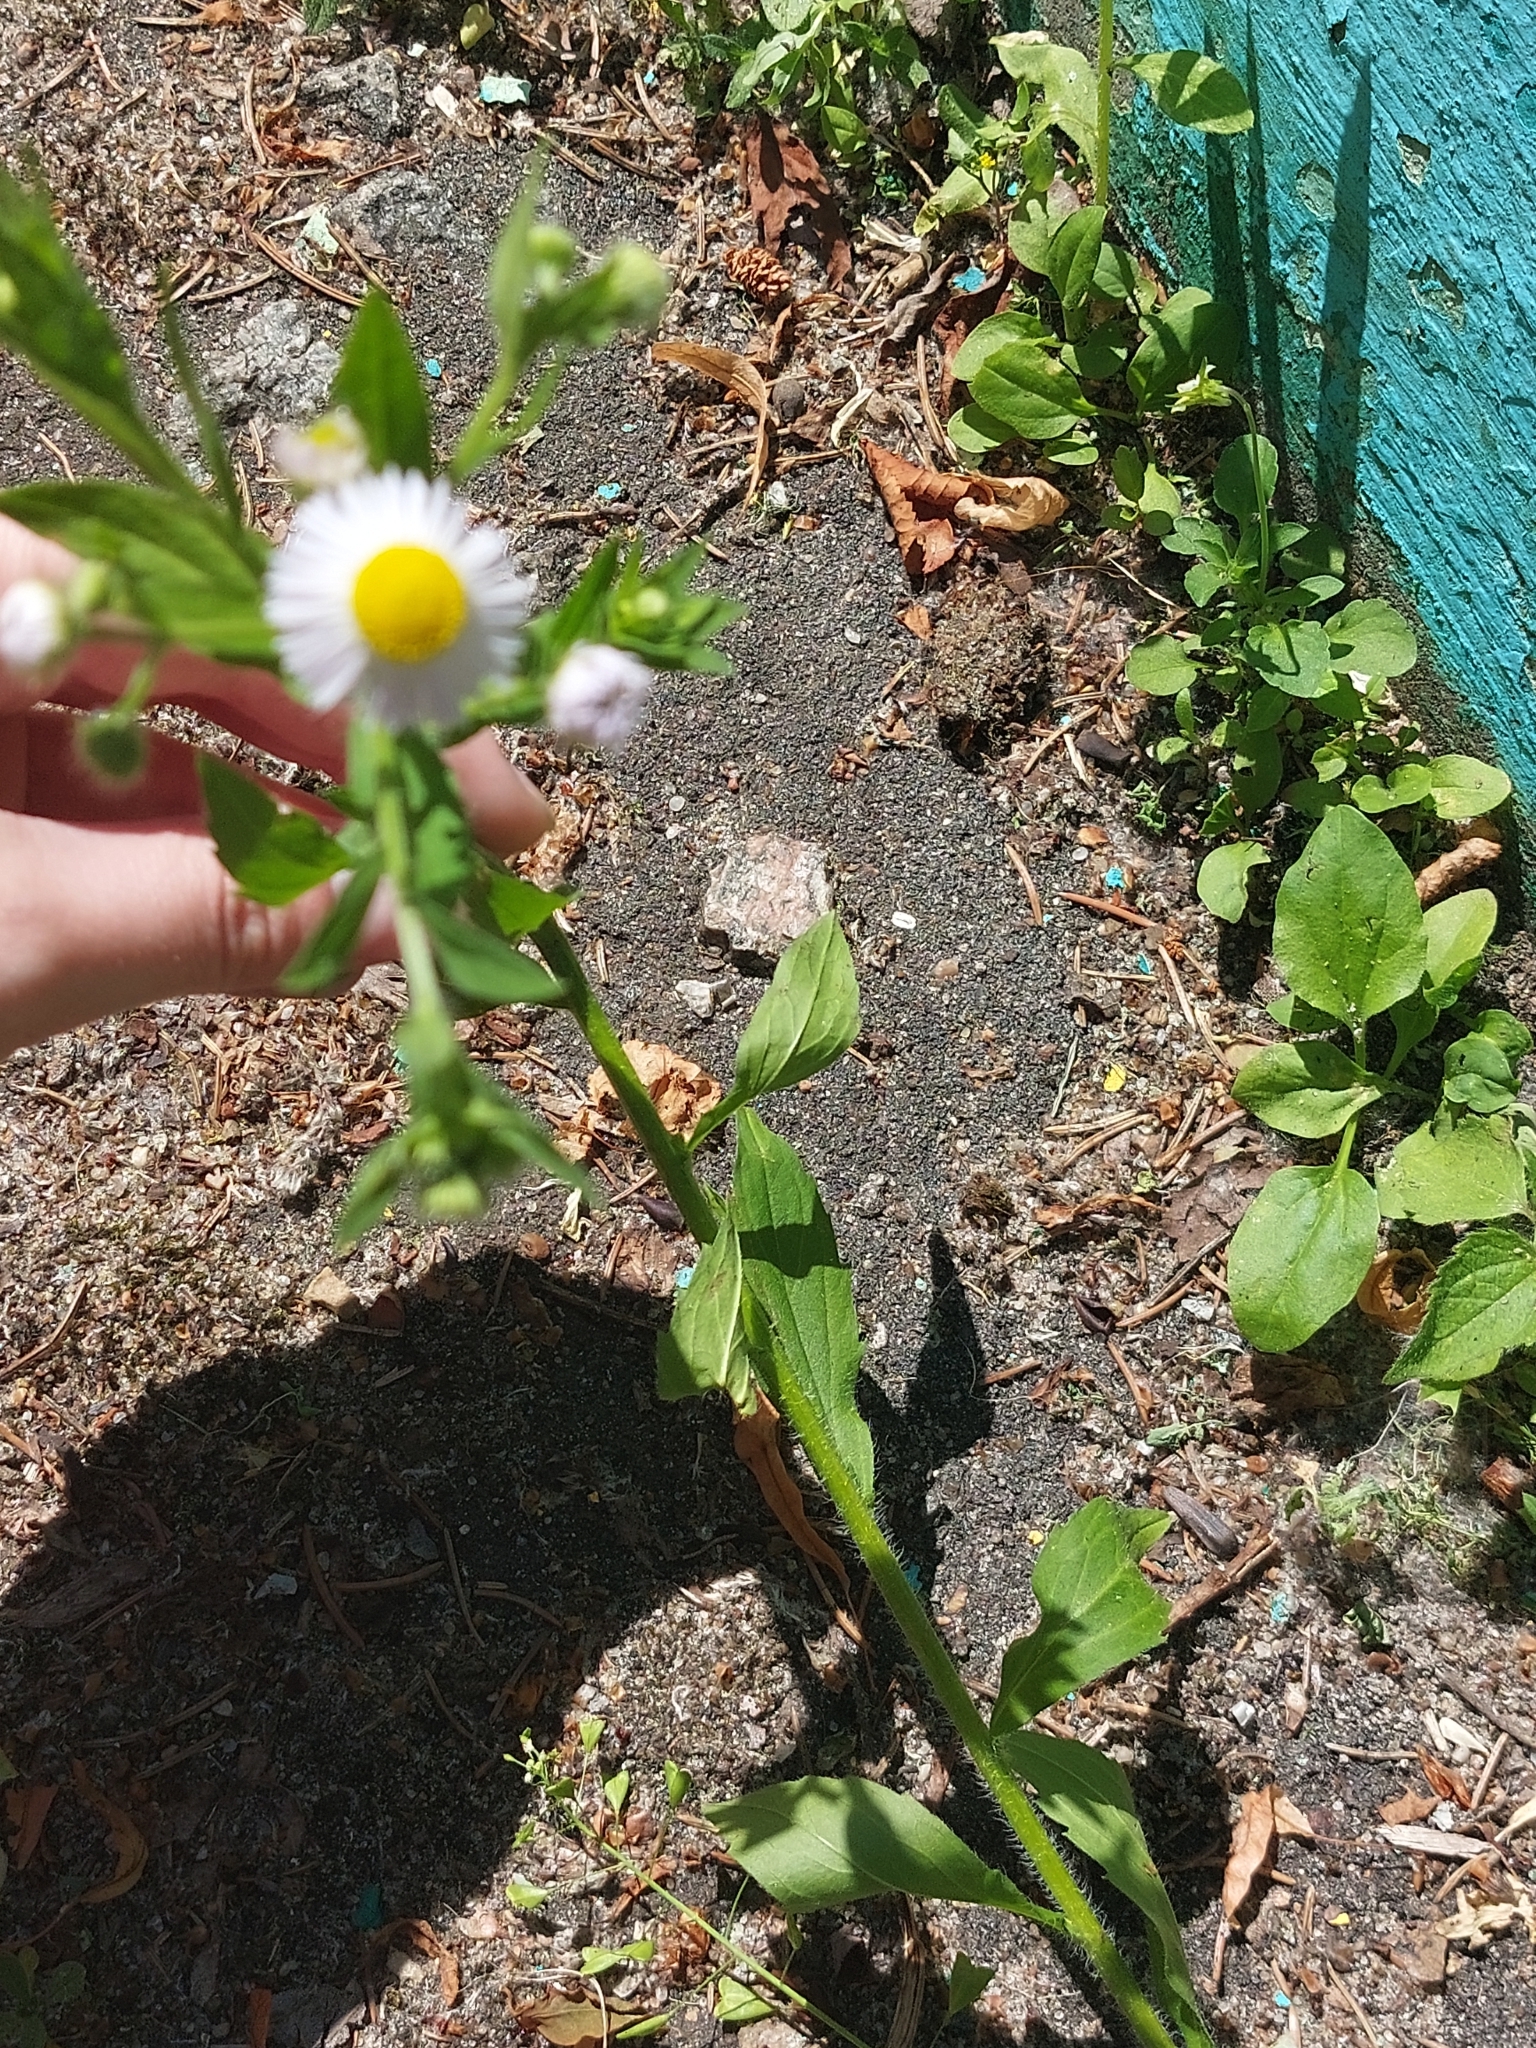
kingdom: Plantae
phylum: Tracheophyta
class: Magnoliopsida
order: Asterales
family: Asteraceae
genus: Erigeron
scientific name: Erigeron annuus
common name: Tall fleabane
